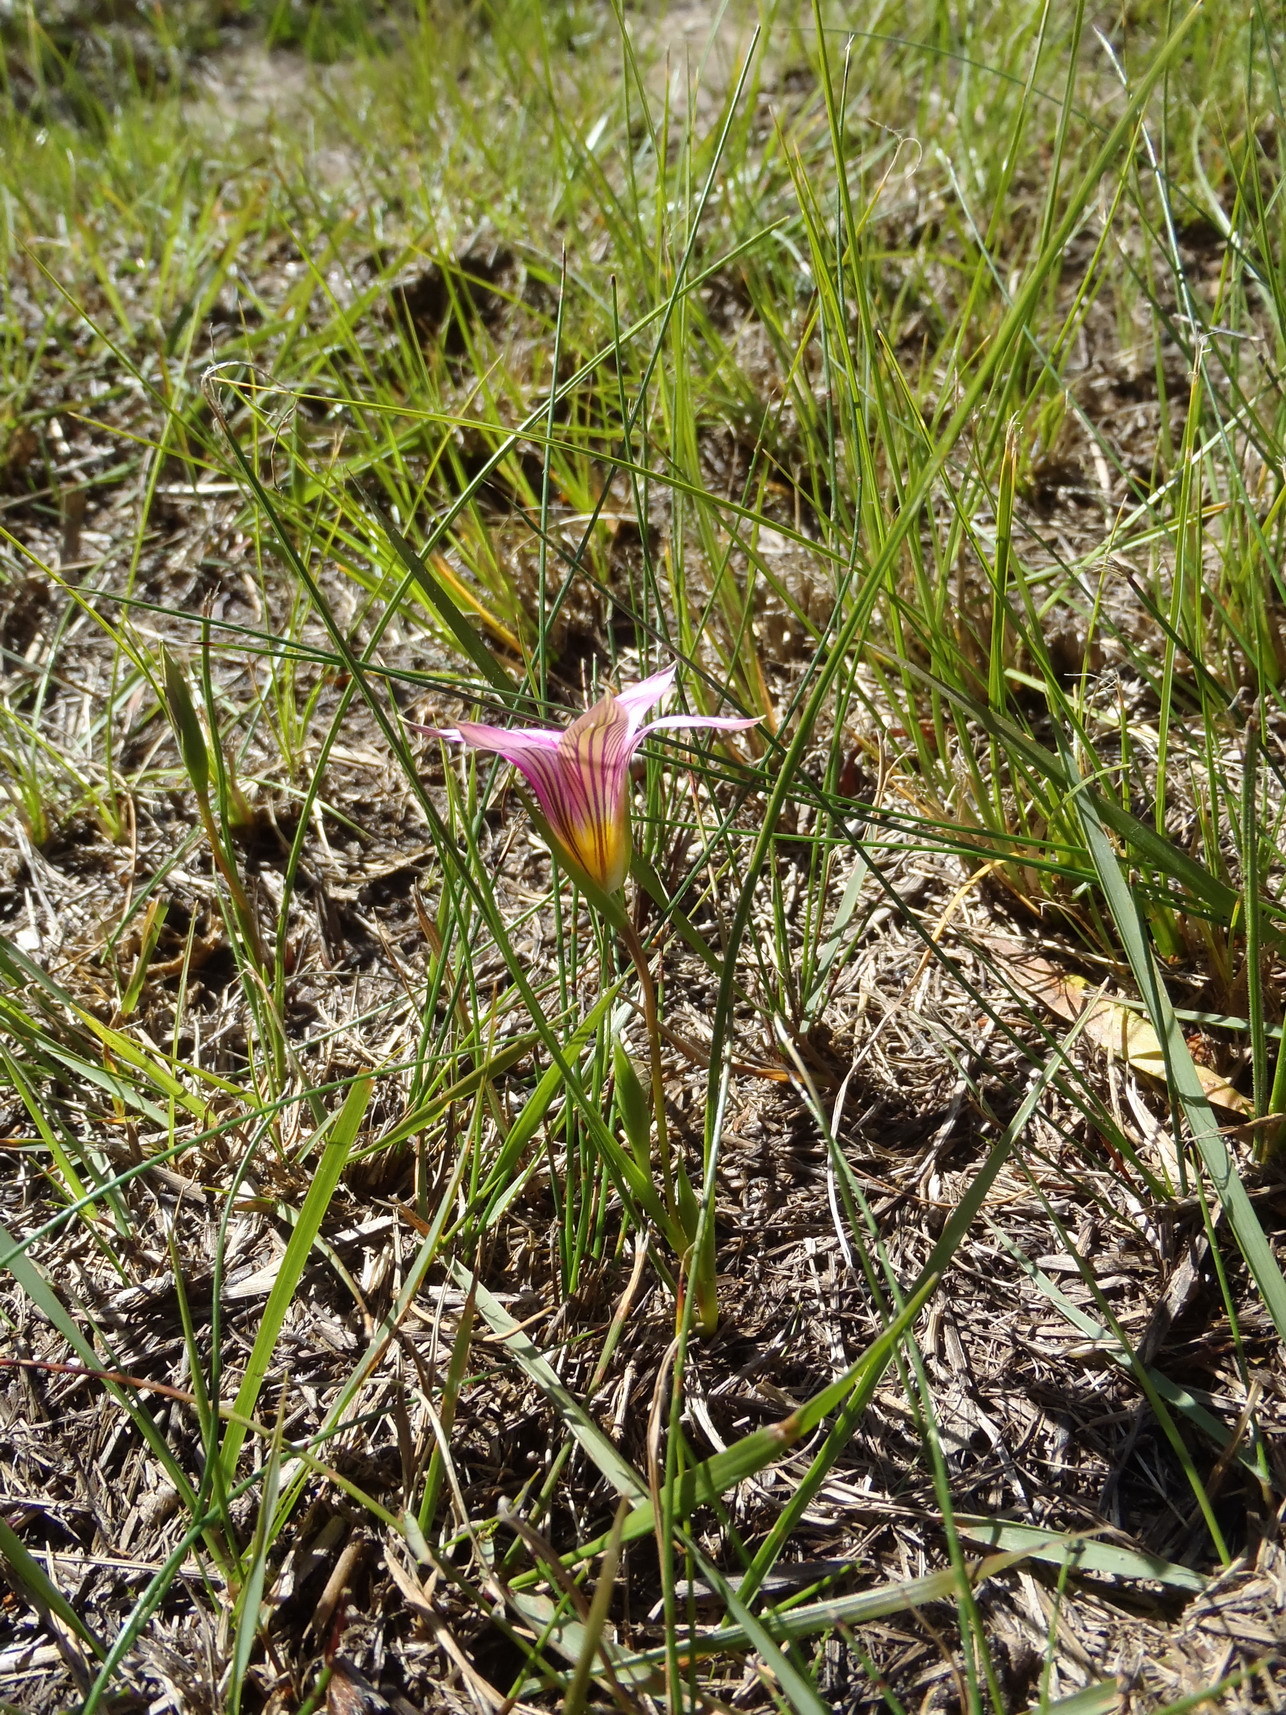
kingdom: Plantae
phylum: Tracheophyta
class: Liliopsida
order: Asparagales
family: Iridaceae
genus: Romulea
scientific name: Romulea rosea
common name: Oniongrass
